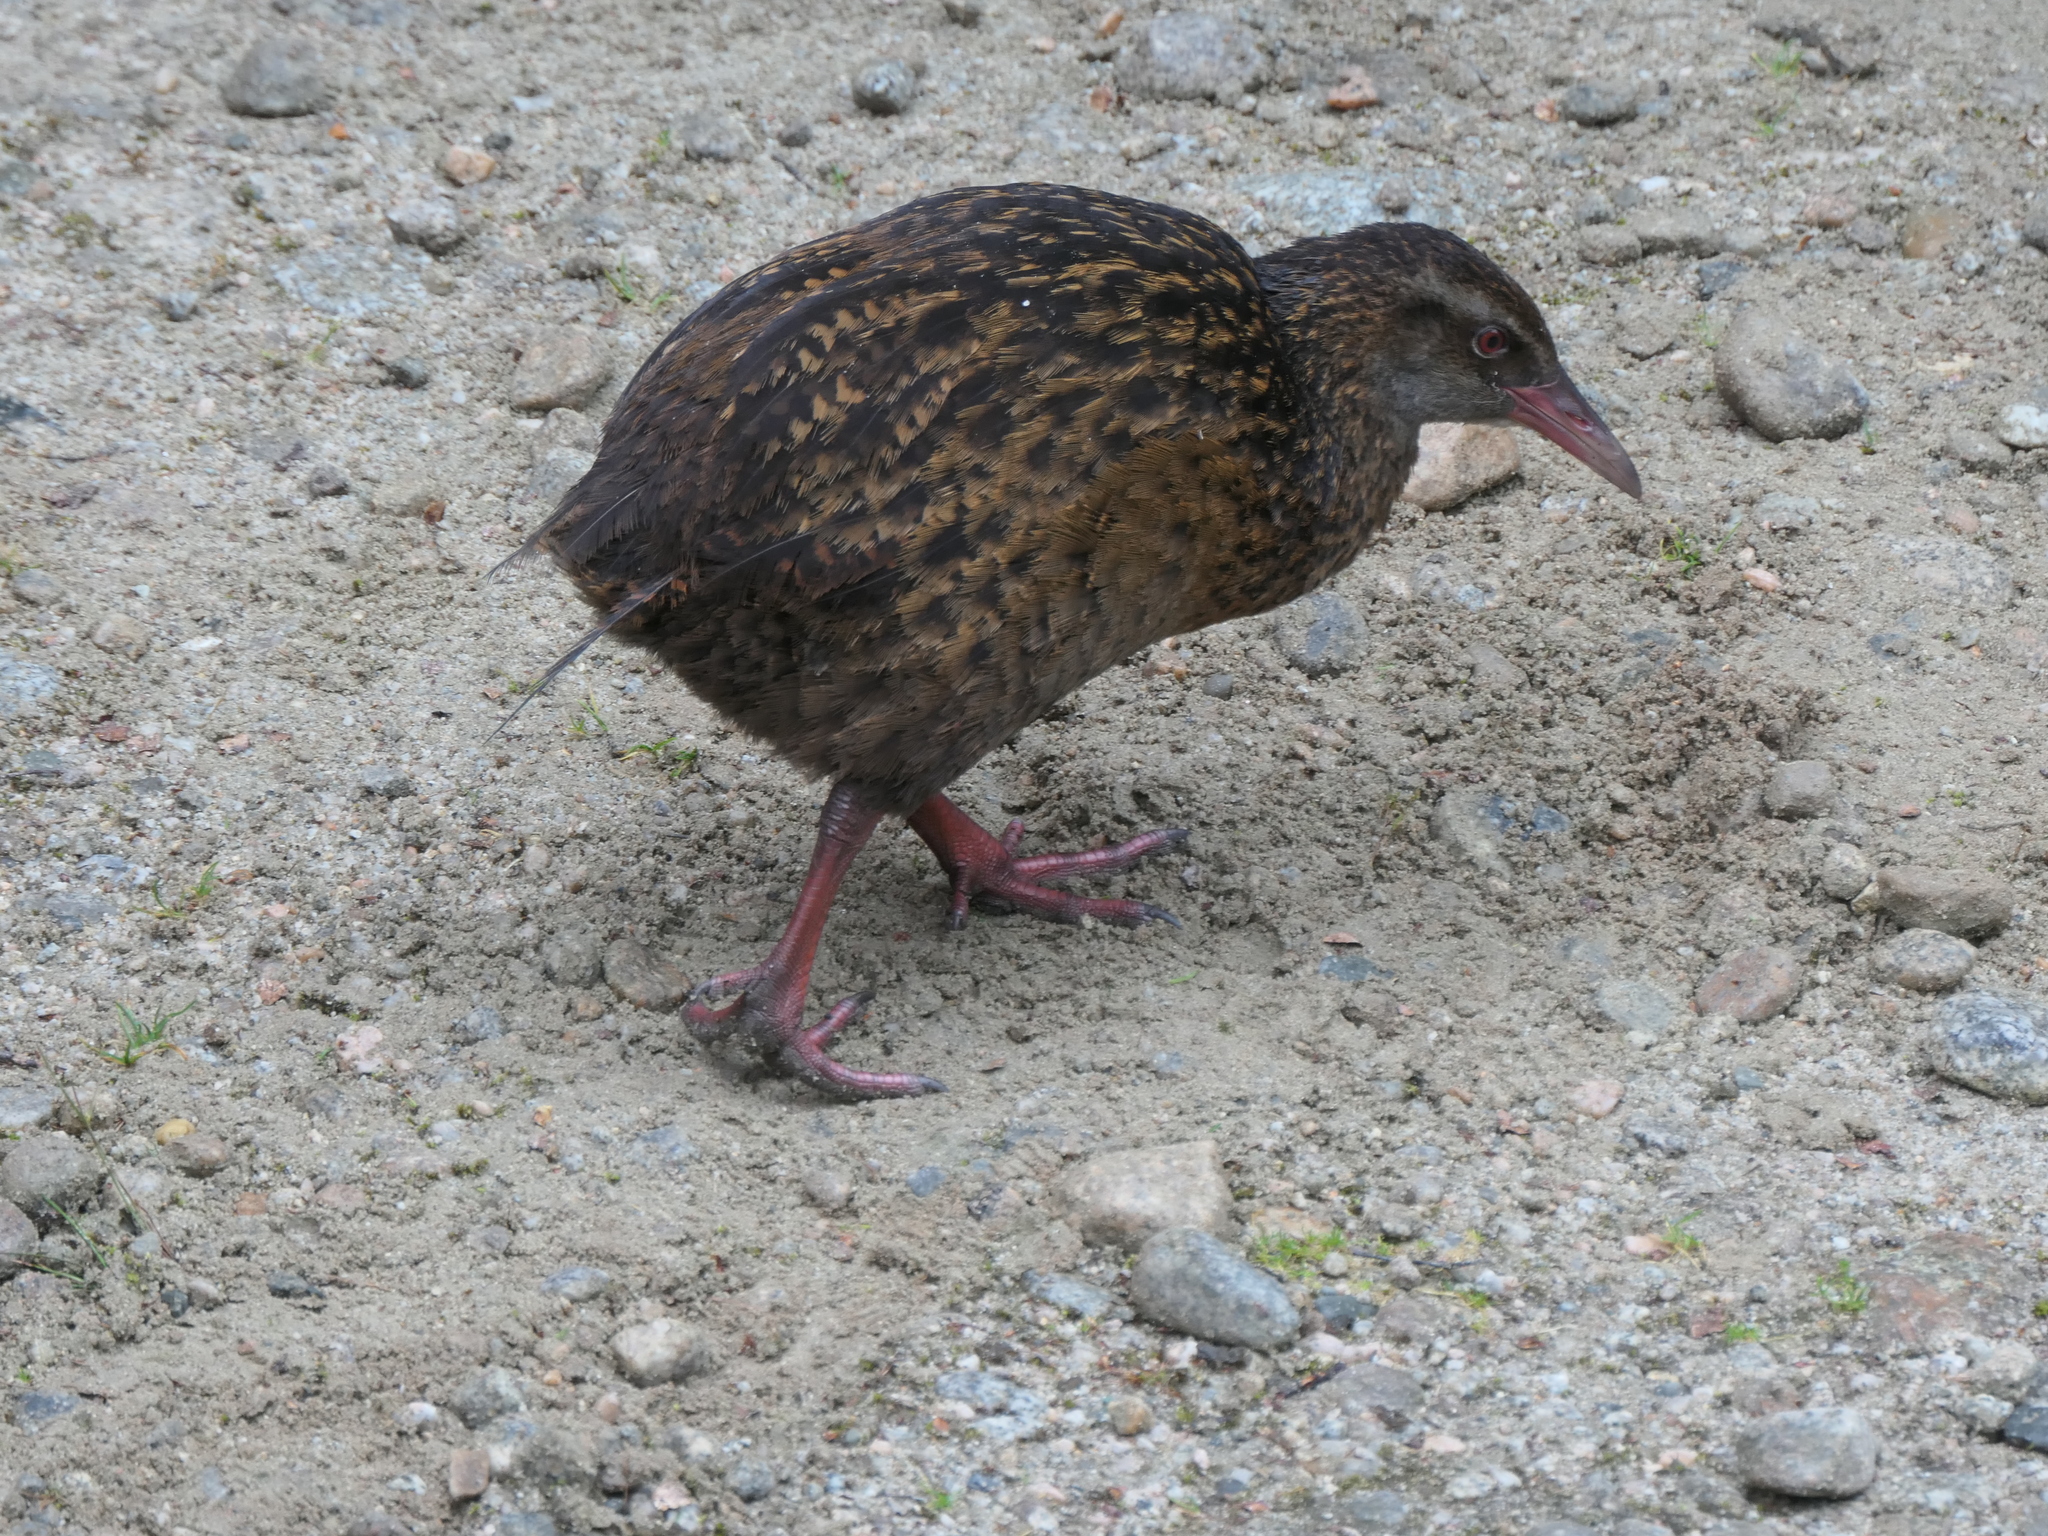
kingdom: Animalia
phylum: Chordata
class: Aves
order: Gruiformes
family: Rallidae
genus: Gallirallus
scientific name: Gallirallus australis
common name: Weka
